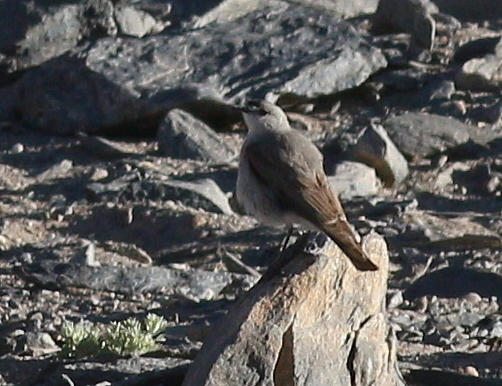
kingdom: Animalia
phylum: Chordata
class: Aves
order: Passeriformes
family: Tyrannidae
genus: Muscisaxicola
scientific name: Muscisaxicola frontalis
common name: Black-fronted ground tyrant
